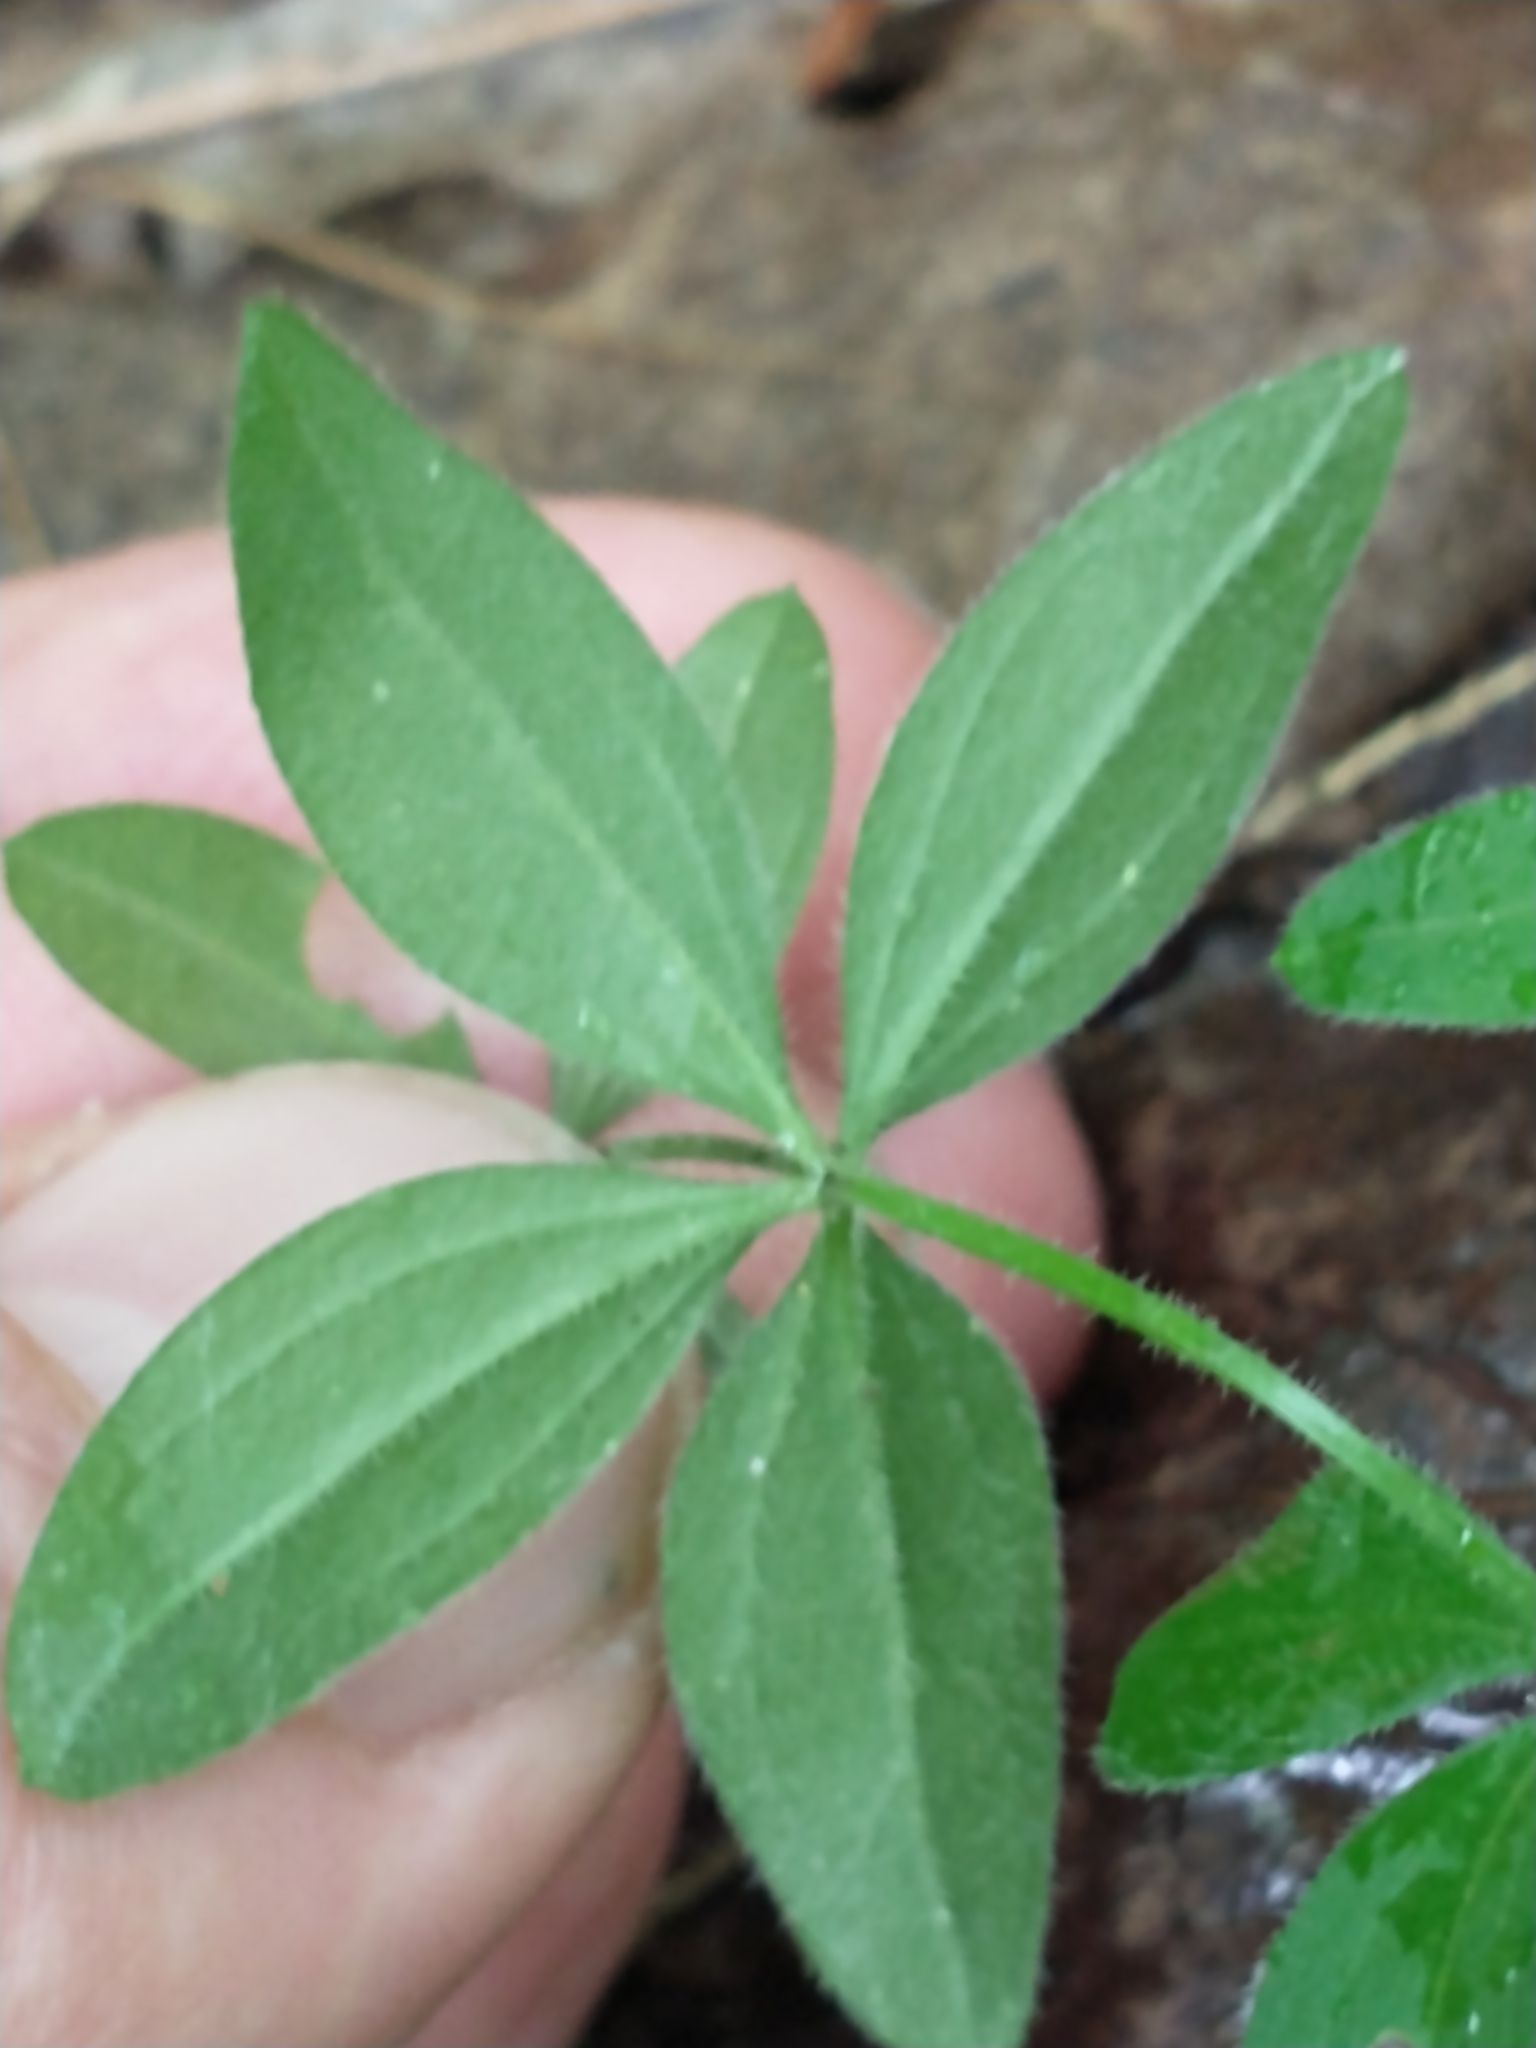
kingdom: Plantae
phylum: Tracheophyta
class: Magnoliopsida
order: Gentianales
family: Rubiaceae
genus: Galium
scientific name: Galium circaezans
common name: Forest bedstraw
